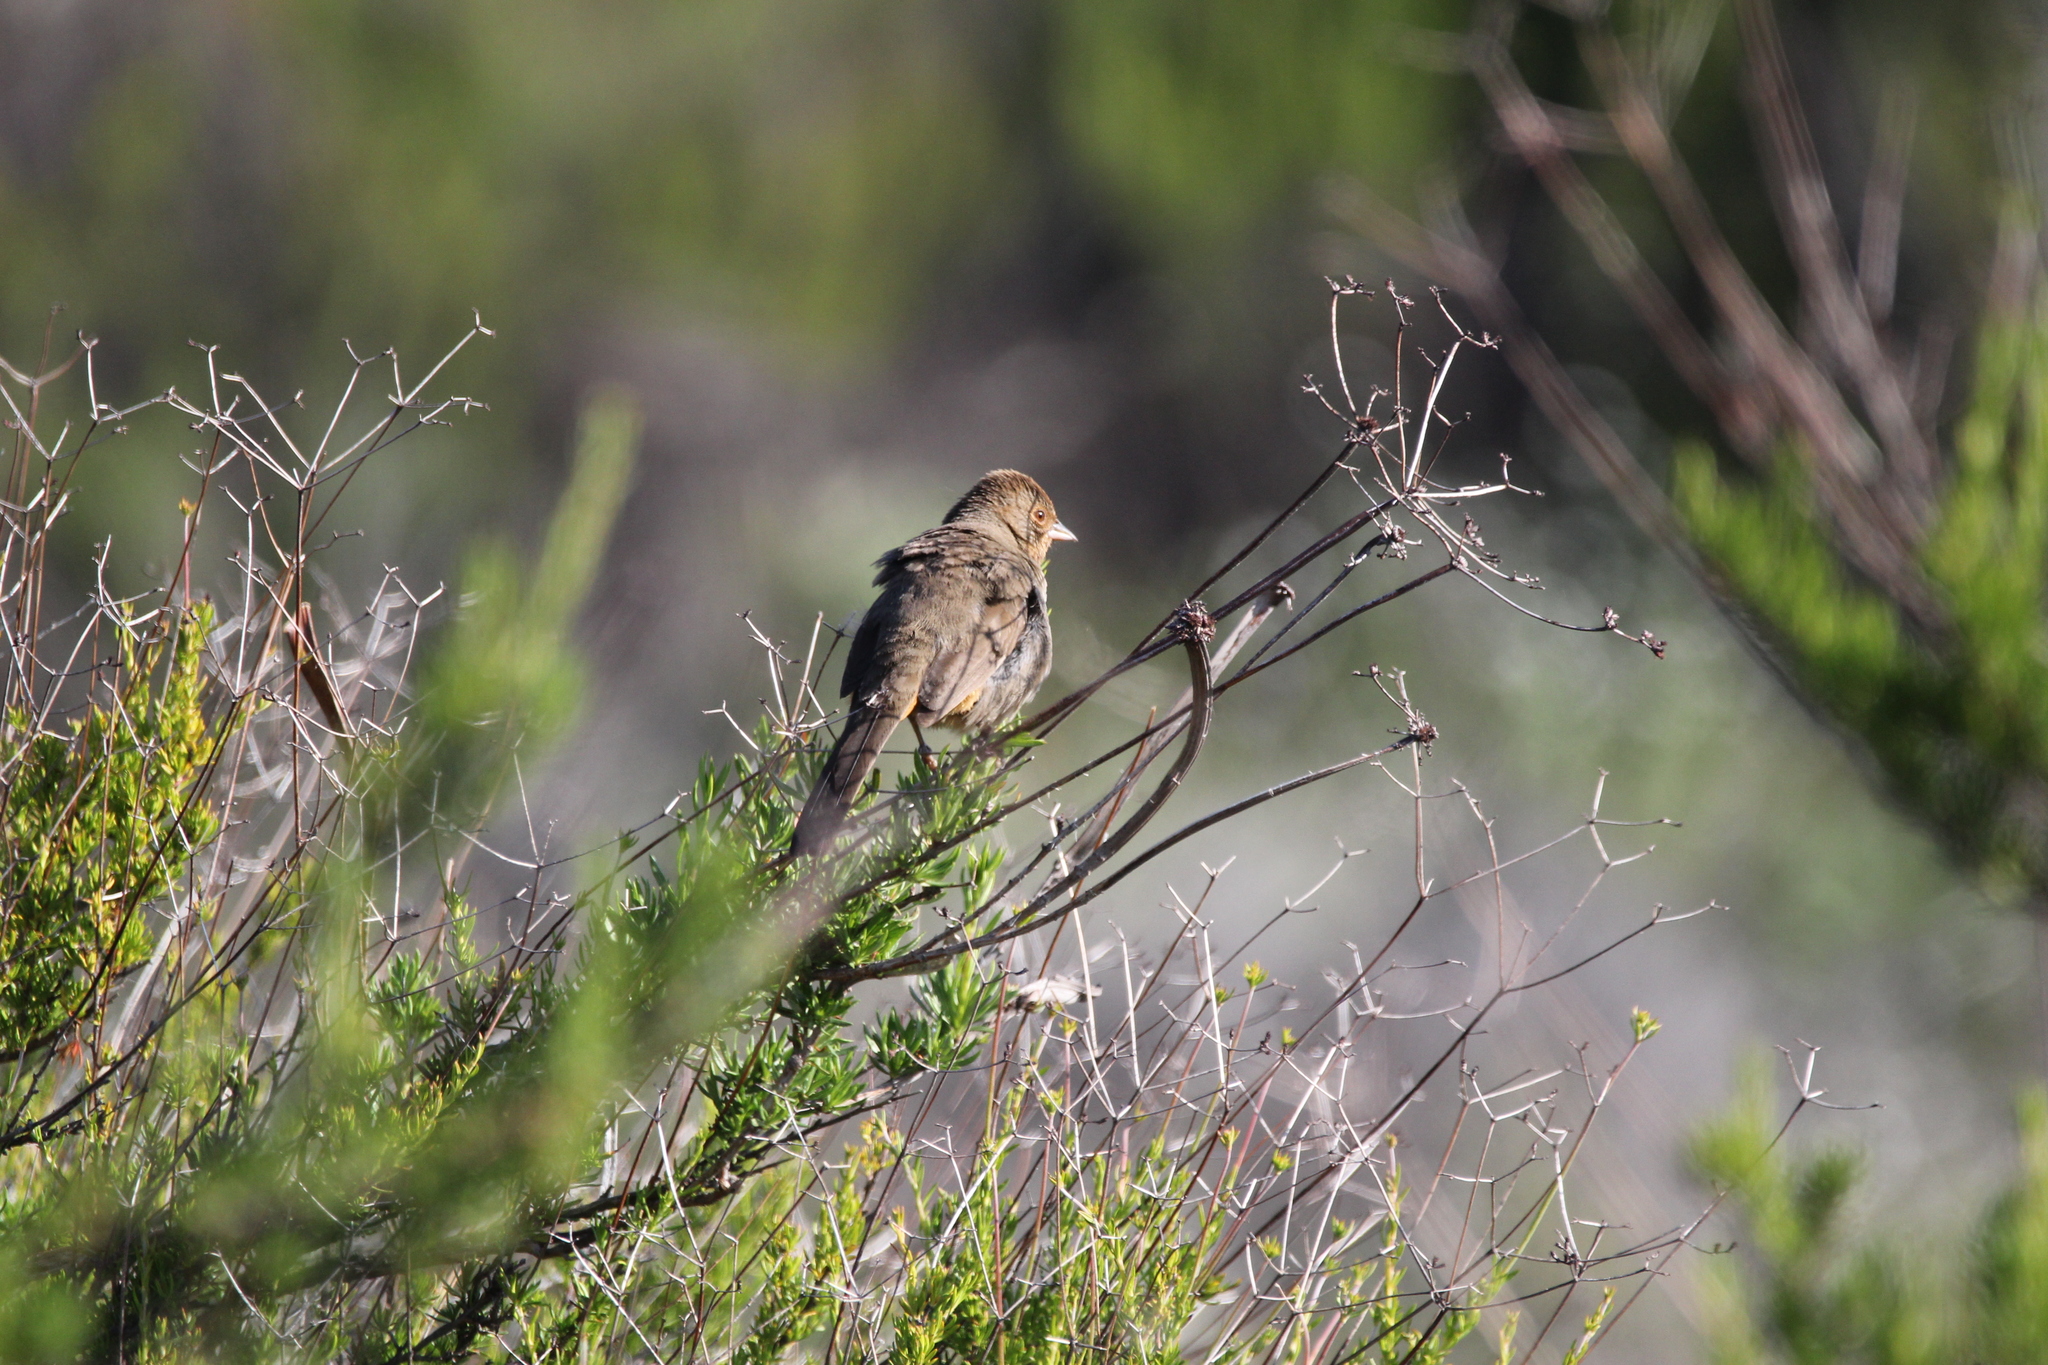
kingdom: Animalia
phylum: Chordata
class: Aves
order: Passeriformes
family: Passerellidae
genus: Melozone
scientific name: Melozone crissalis
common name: California towhee
